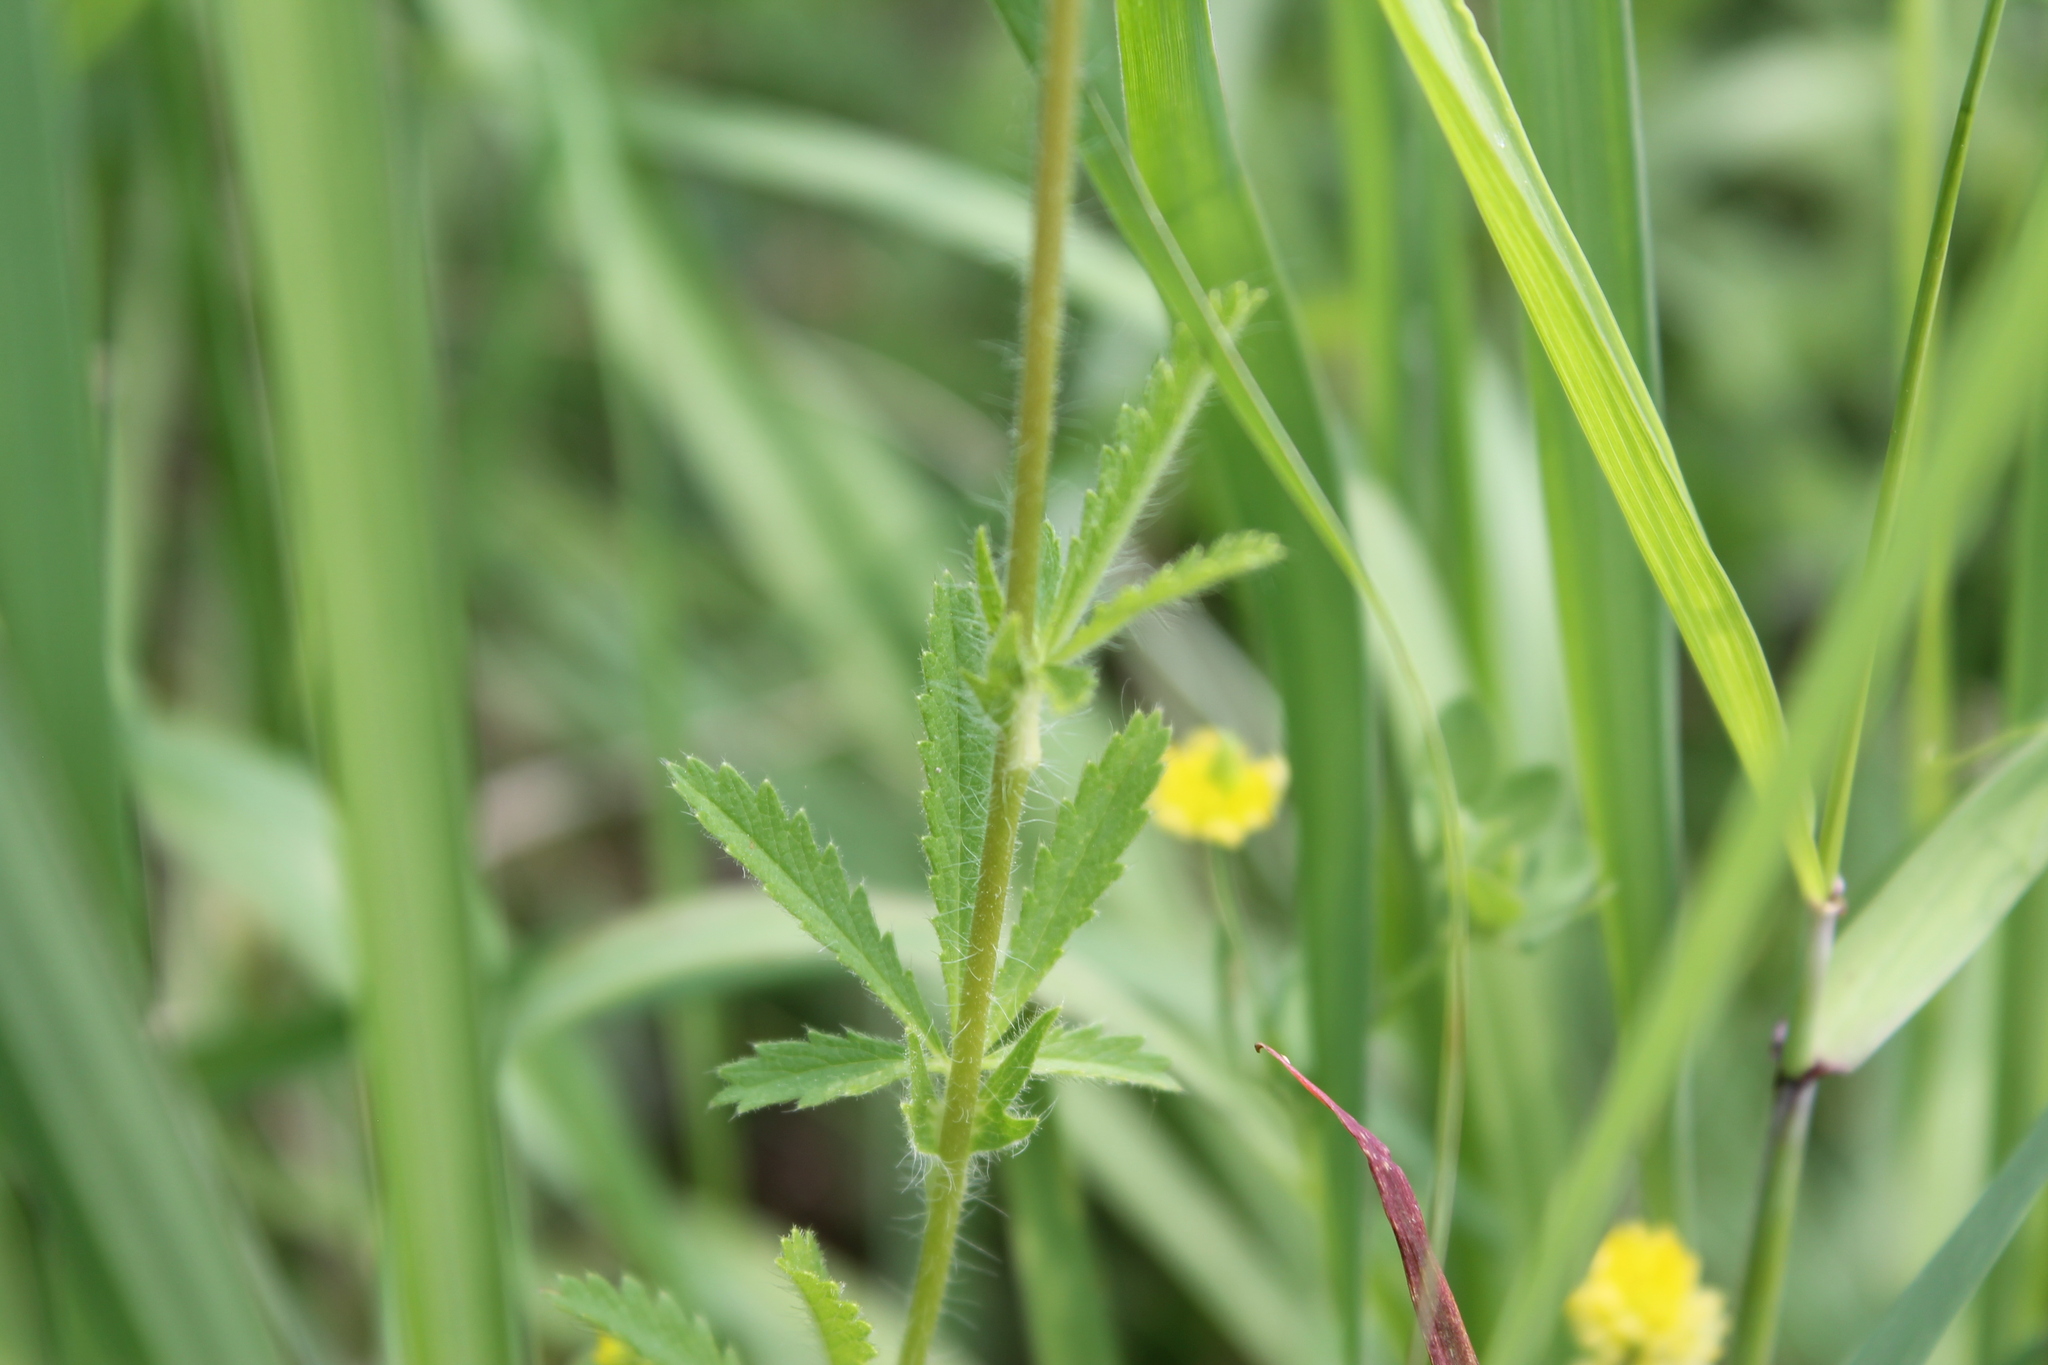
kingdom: Plantae
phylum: Tracheophyta
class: Magnoliopsida
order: Rosales
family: Rosaceae
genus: Potentilla
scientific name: Potentilla recta
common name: Sulphur cinquefoil
